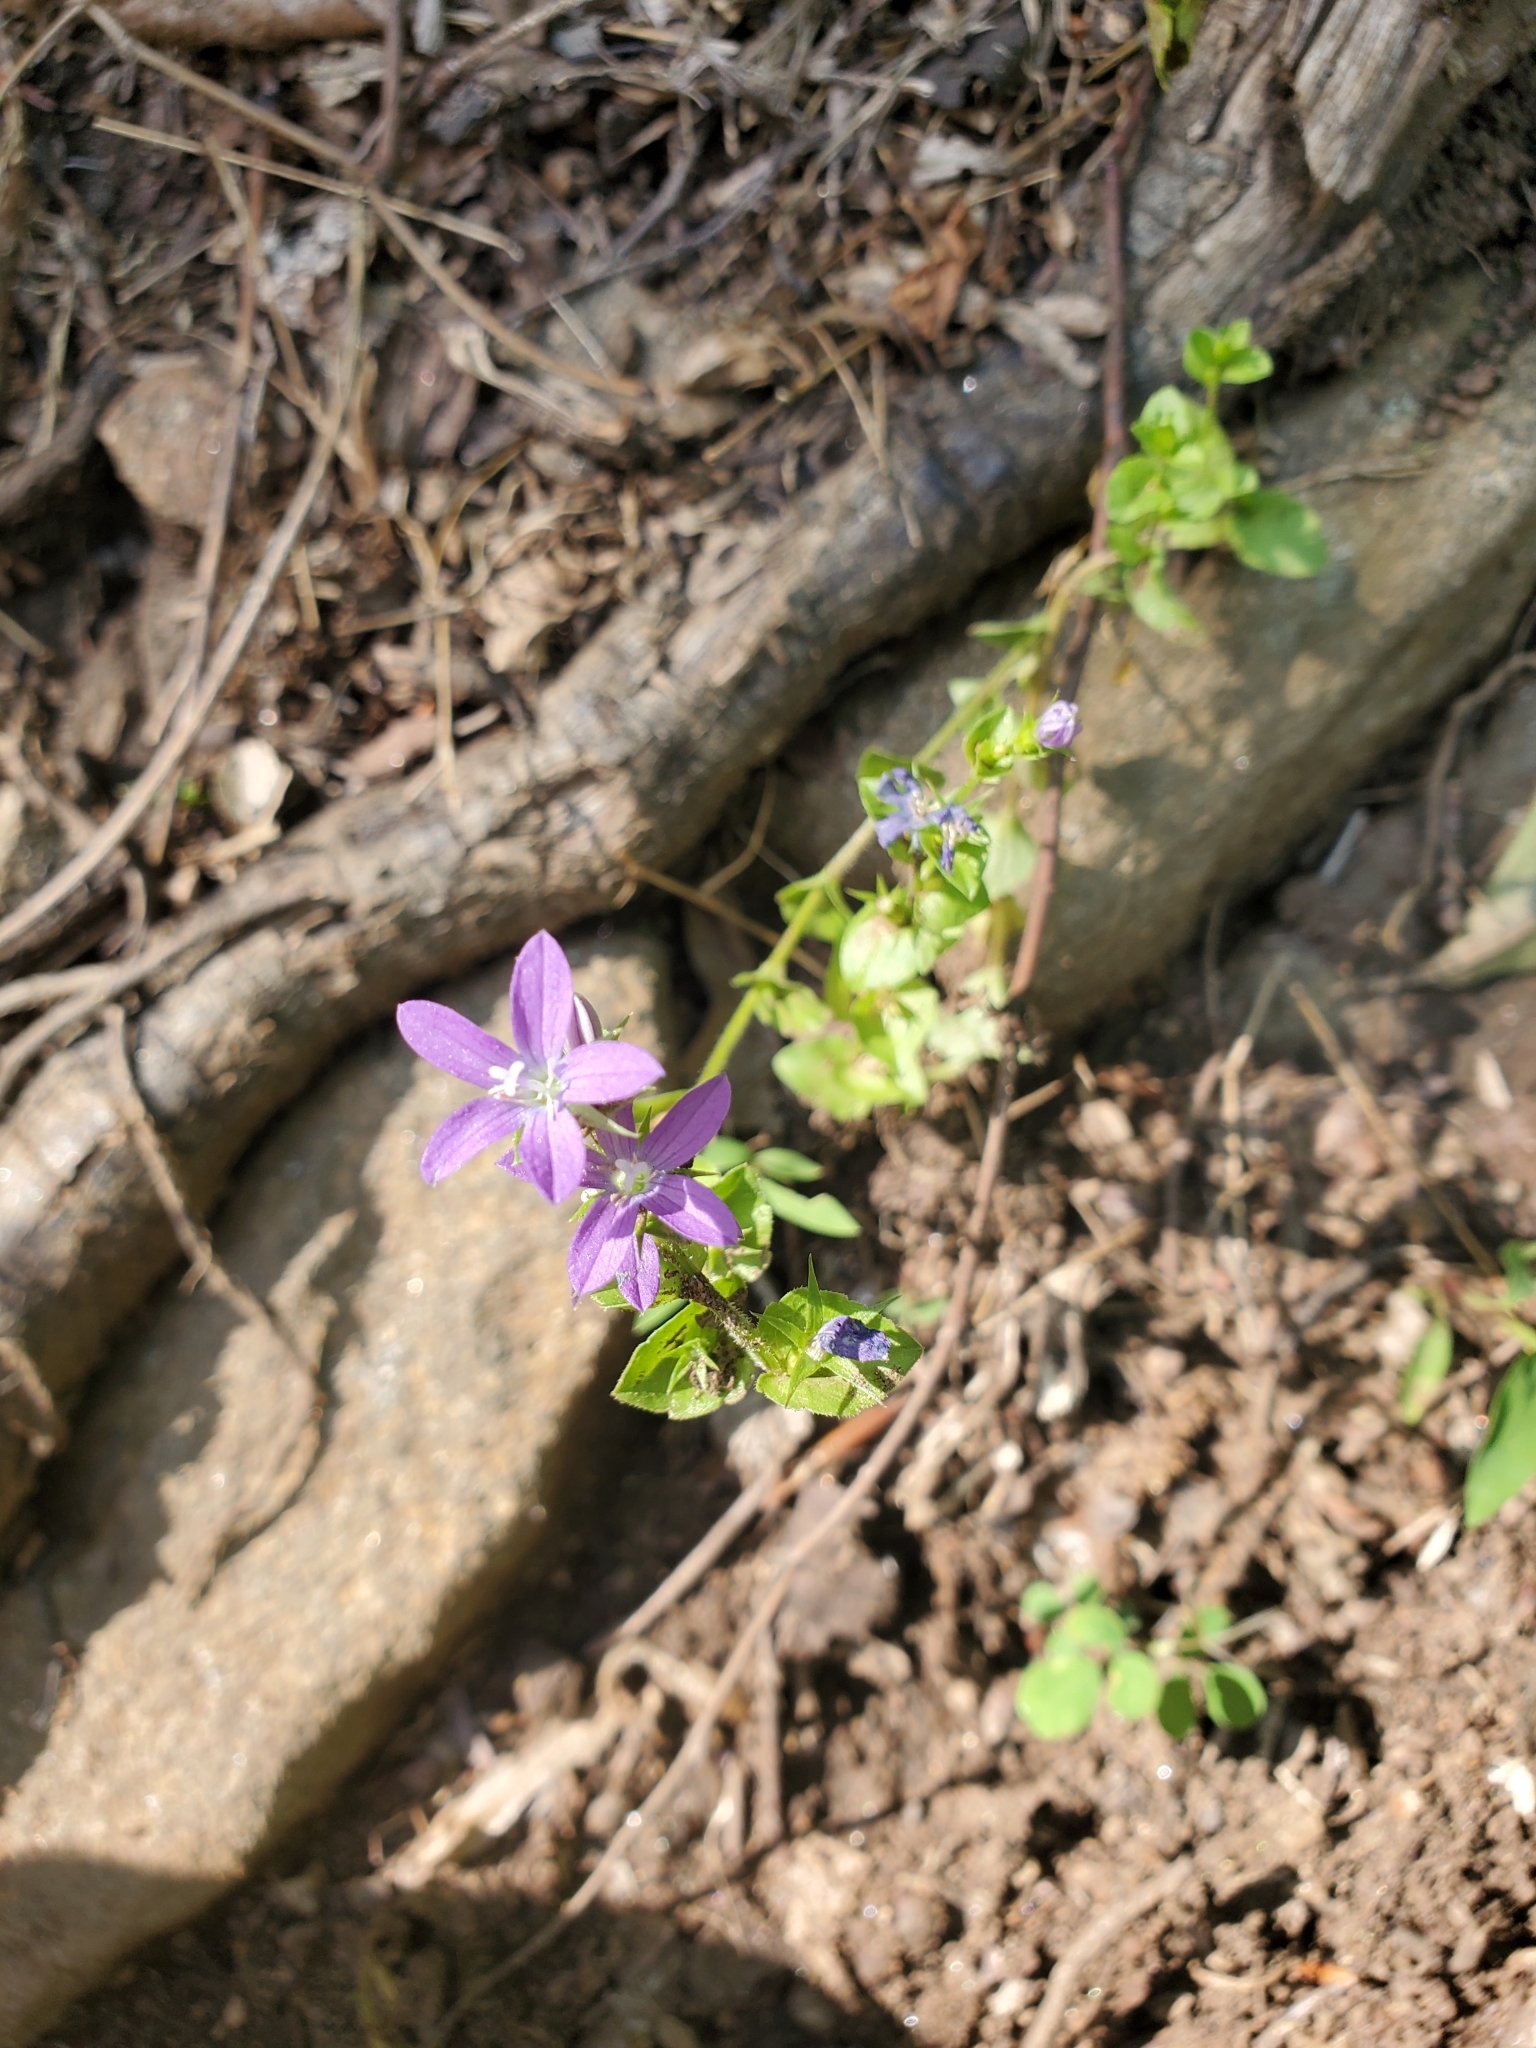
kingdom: Plantae
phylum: Tracheophyta
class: Magnoliopsida
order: Asterales
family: Campanulaceae
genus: Triodanis
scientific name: Triodanis perfoliata
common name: Clasping venus' looking-glass
